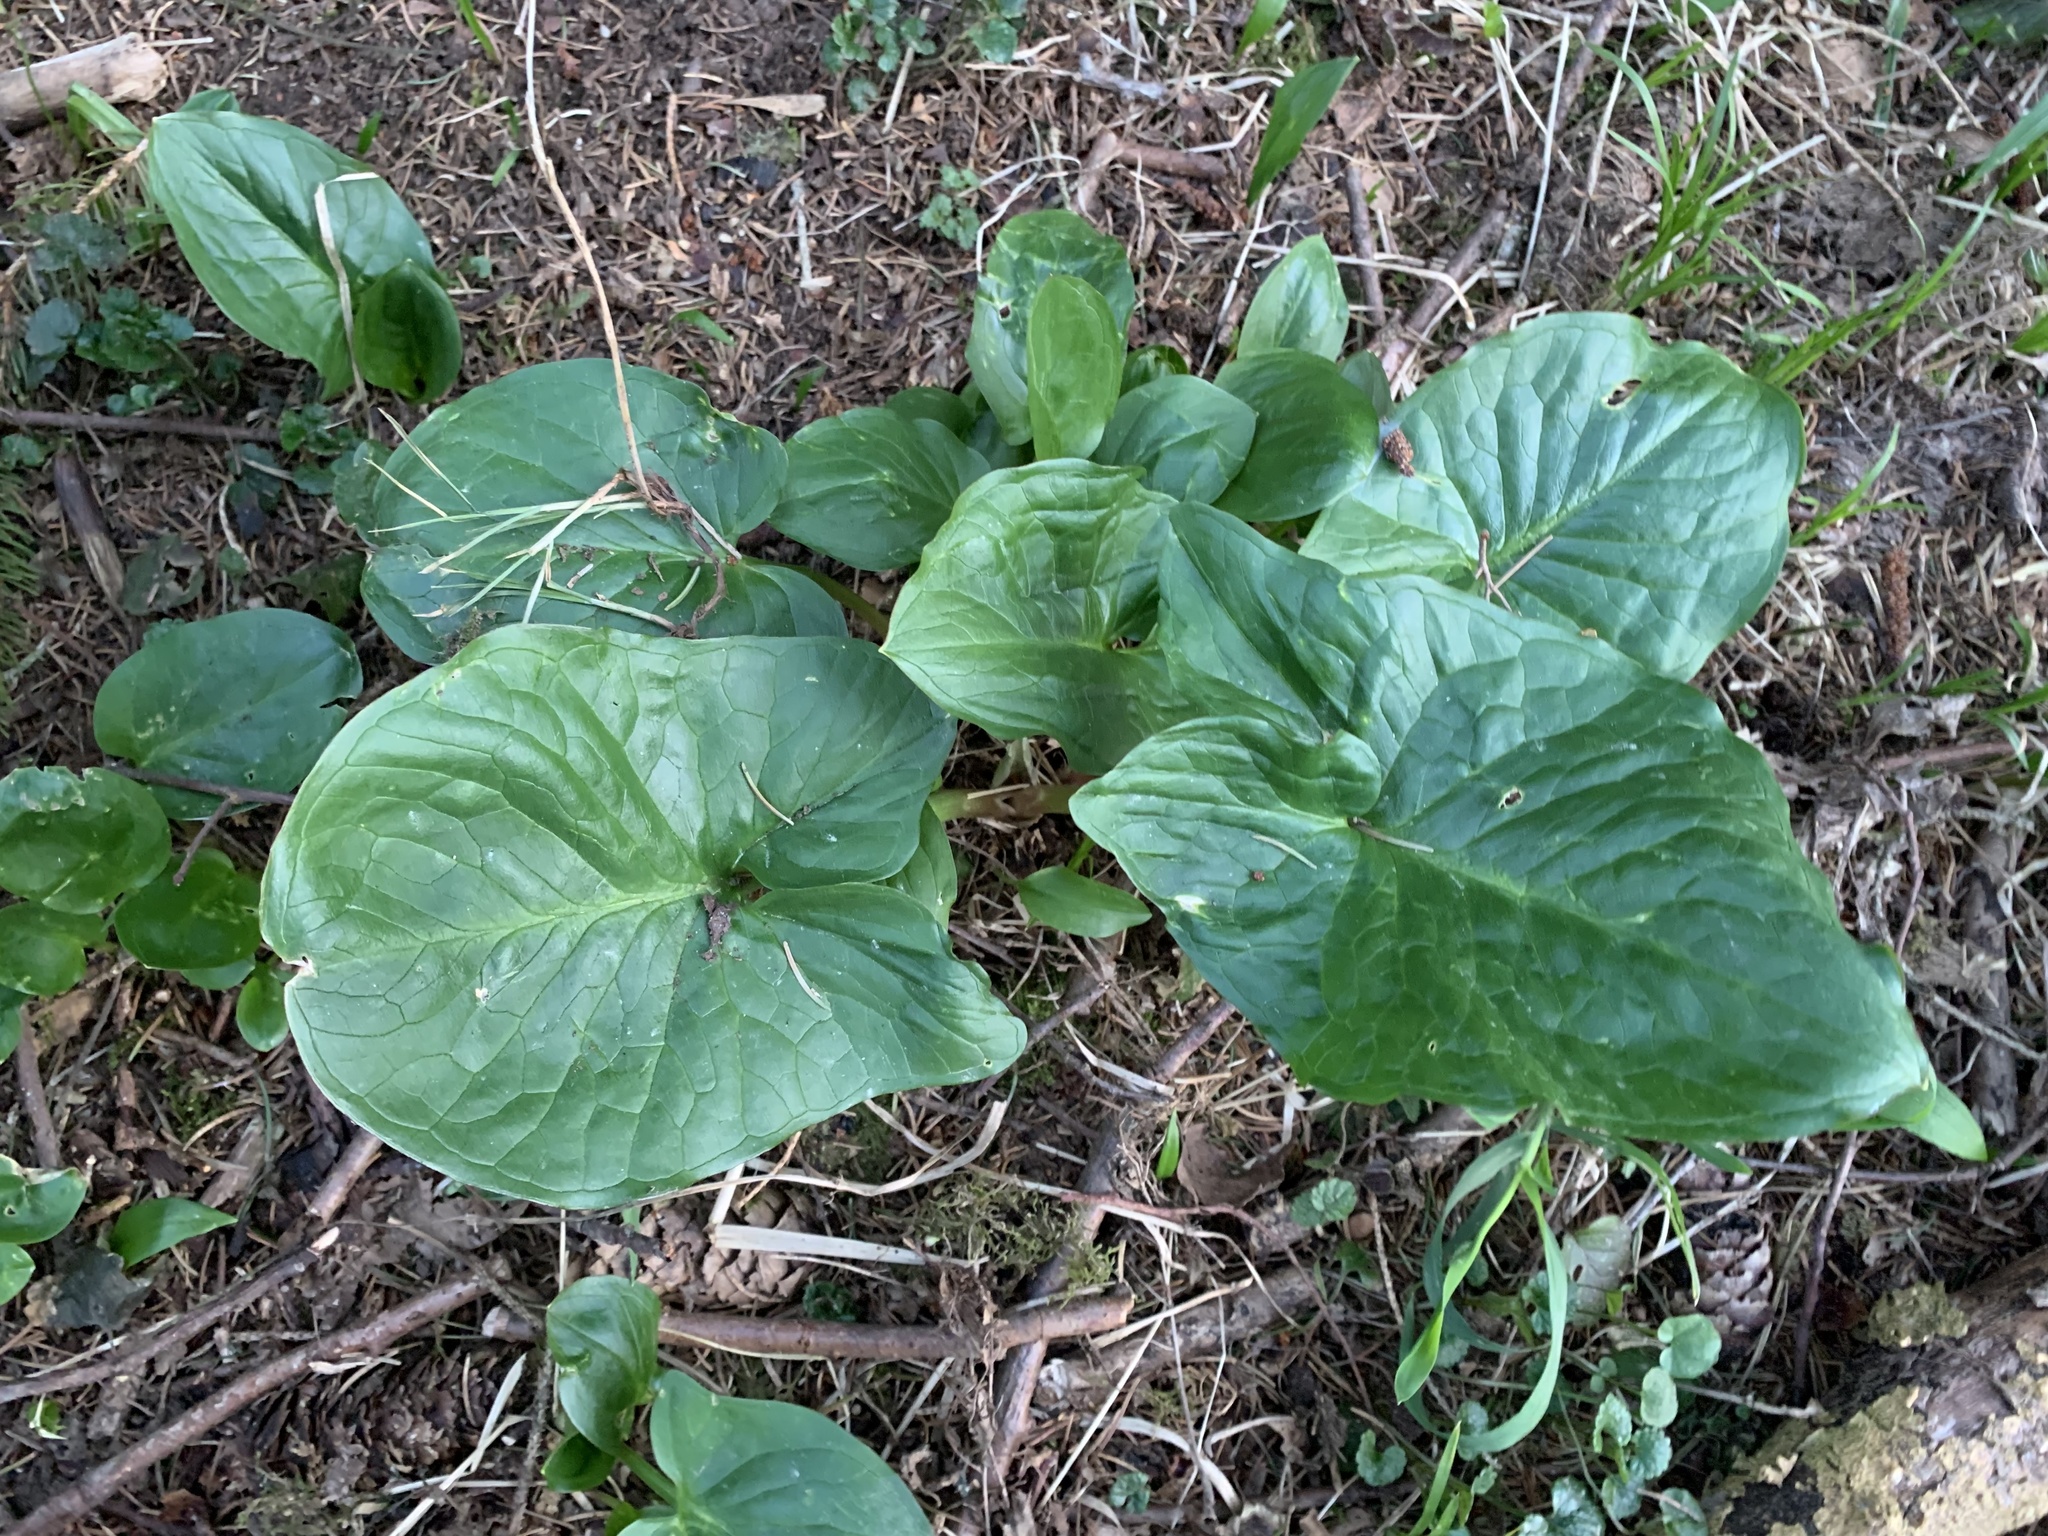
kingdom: Plantae
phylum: Tracheophyta
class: Liliopsida
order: Alismatales
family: Araceae
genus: Arum
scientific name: Arum maculatum
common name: Lords-and-ladies
